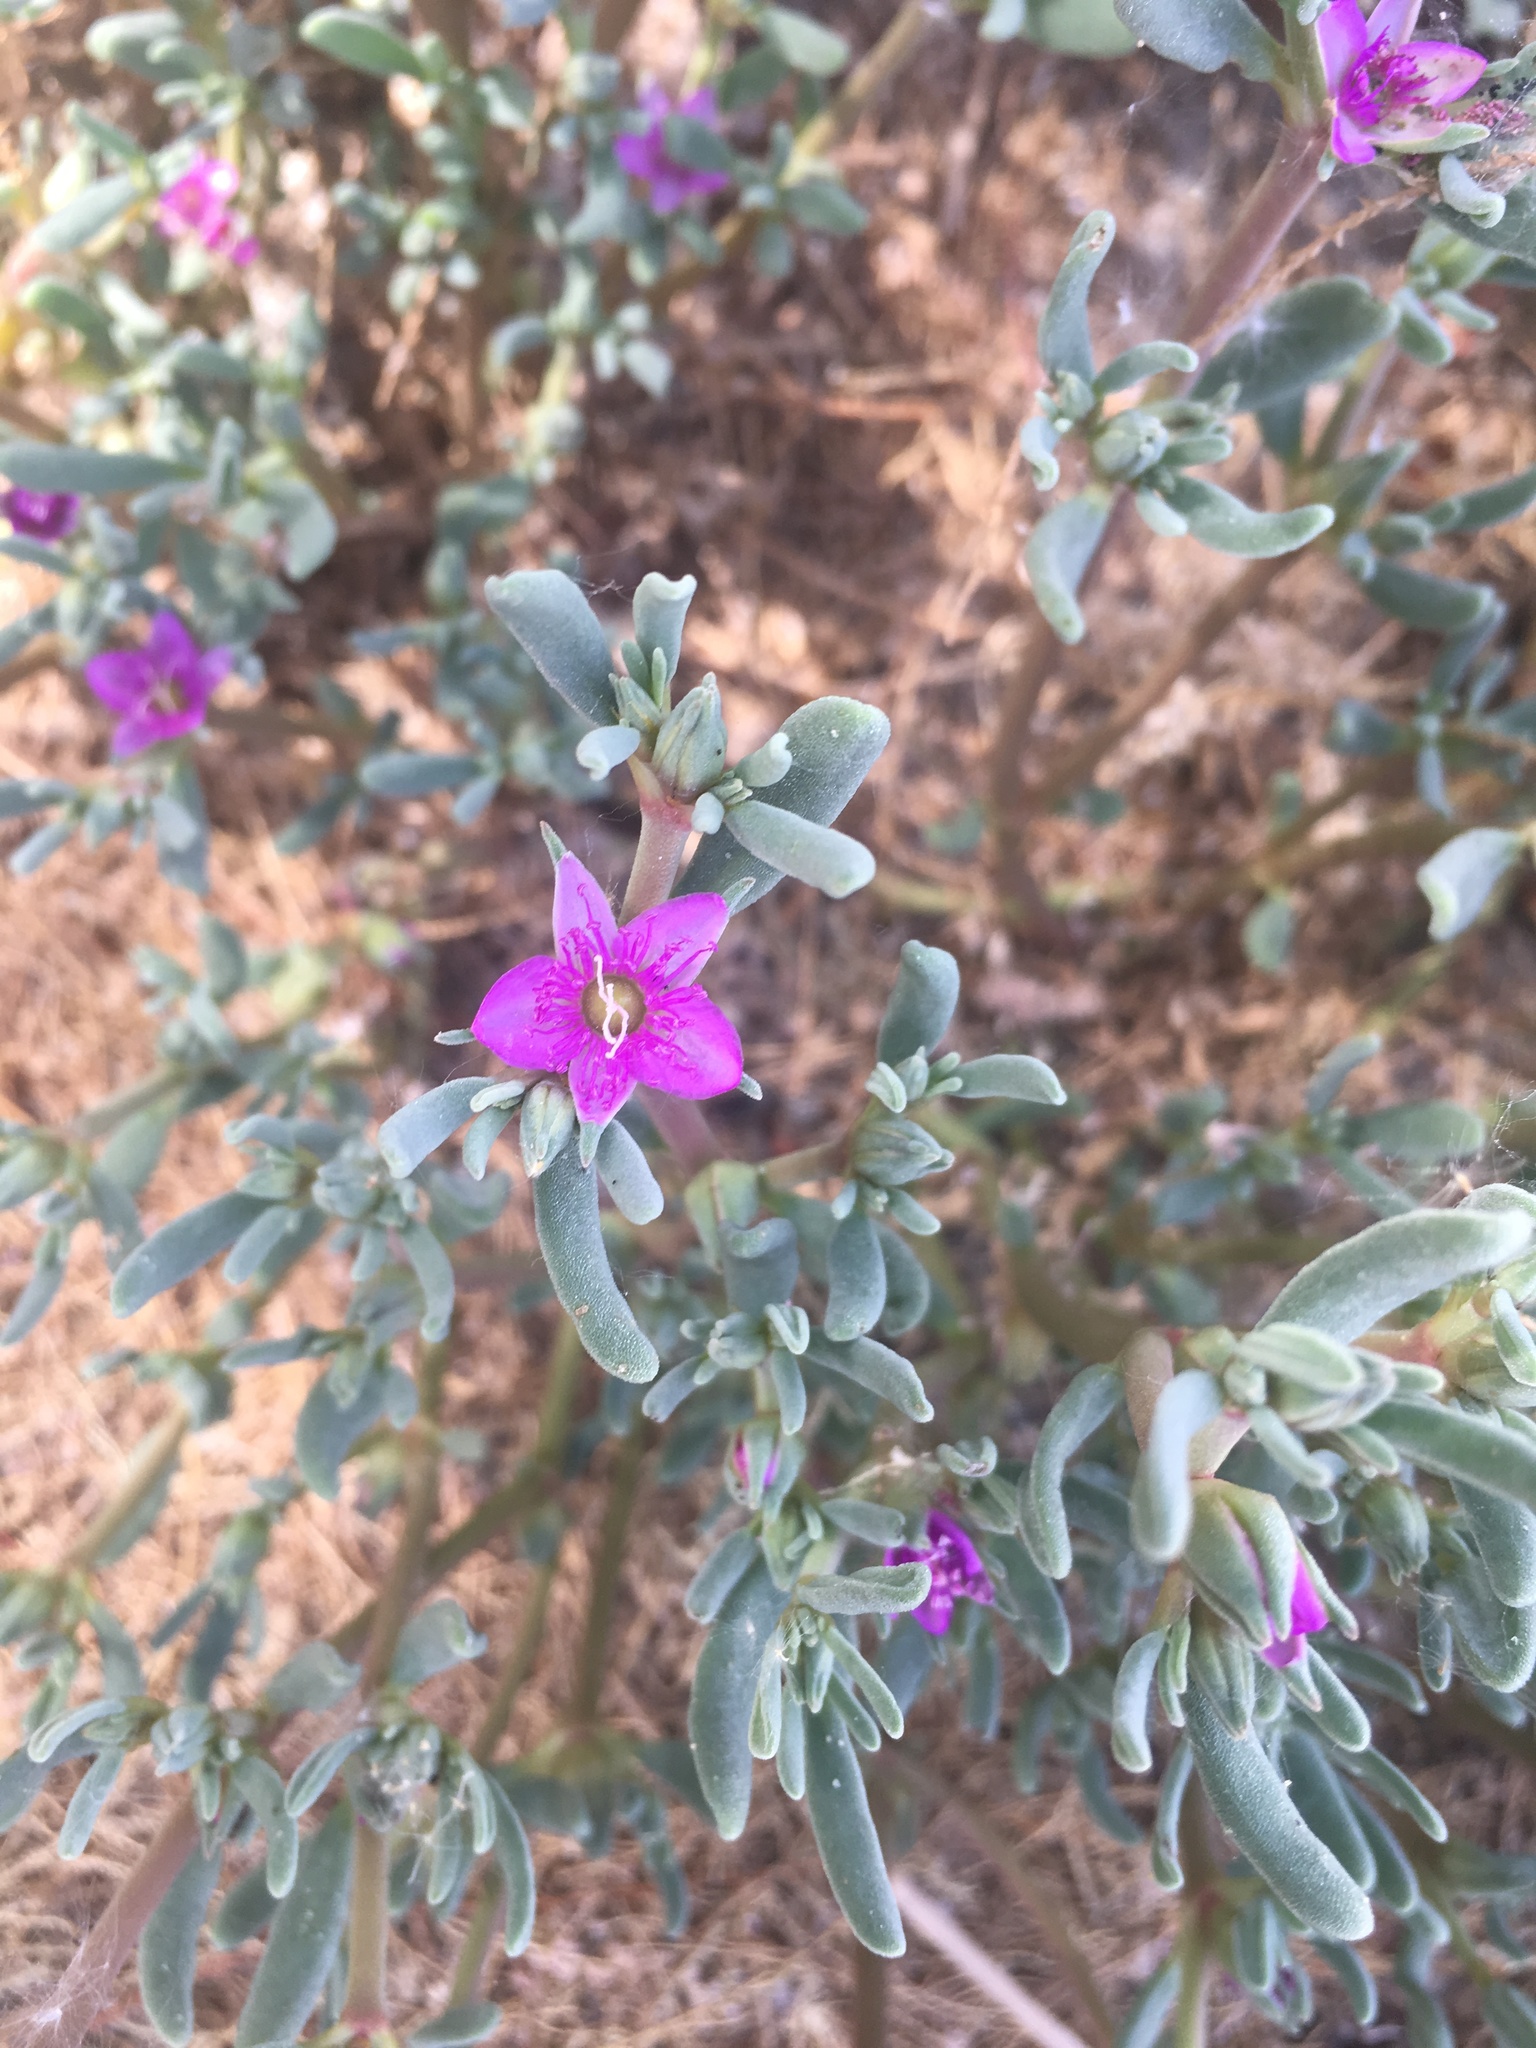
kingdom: Plantae
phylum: Tracheophyta
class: Magnoliopsida
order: Caryophyllales
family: Aizoaceae
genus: Sesuvium
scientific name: Sesuvium revolutifolium
